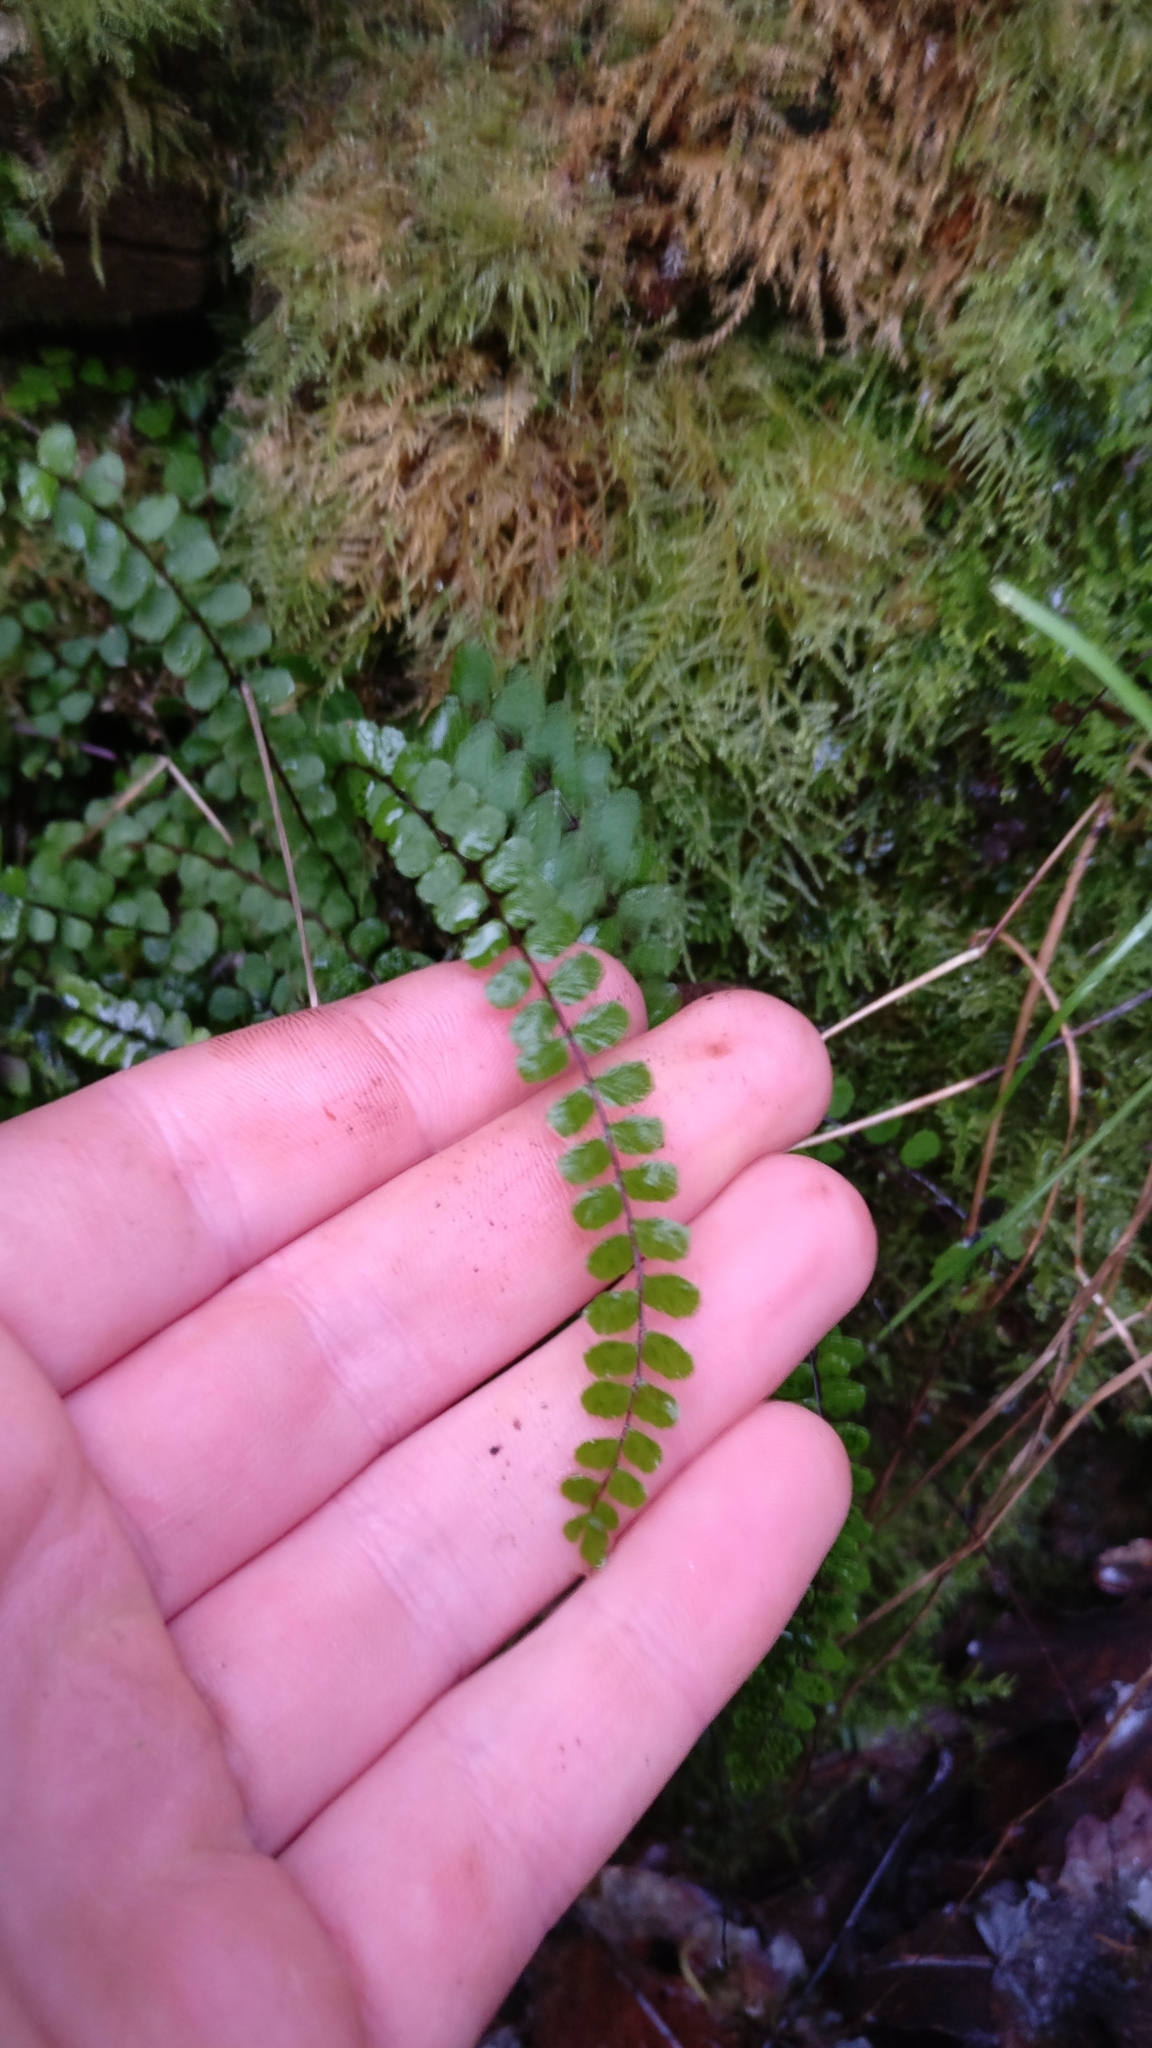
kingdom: Plantae
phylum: Tracheophyta
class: Polypodiopsida
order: Polypodiales
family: Aspleniaceae
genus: Asplenium
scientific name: Asplenium trichomanes
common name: Maidenhair spleenwort
